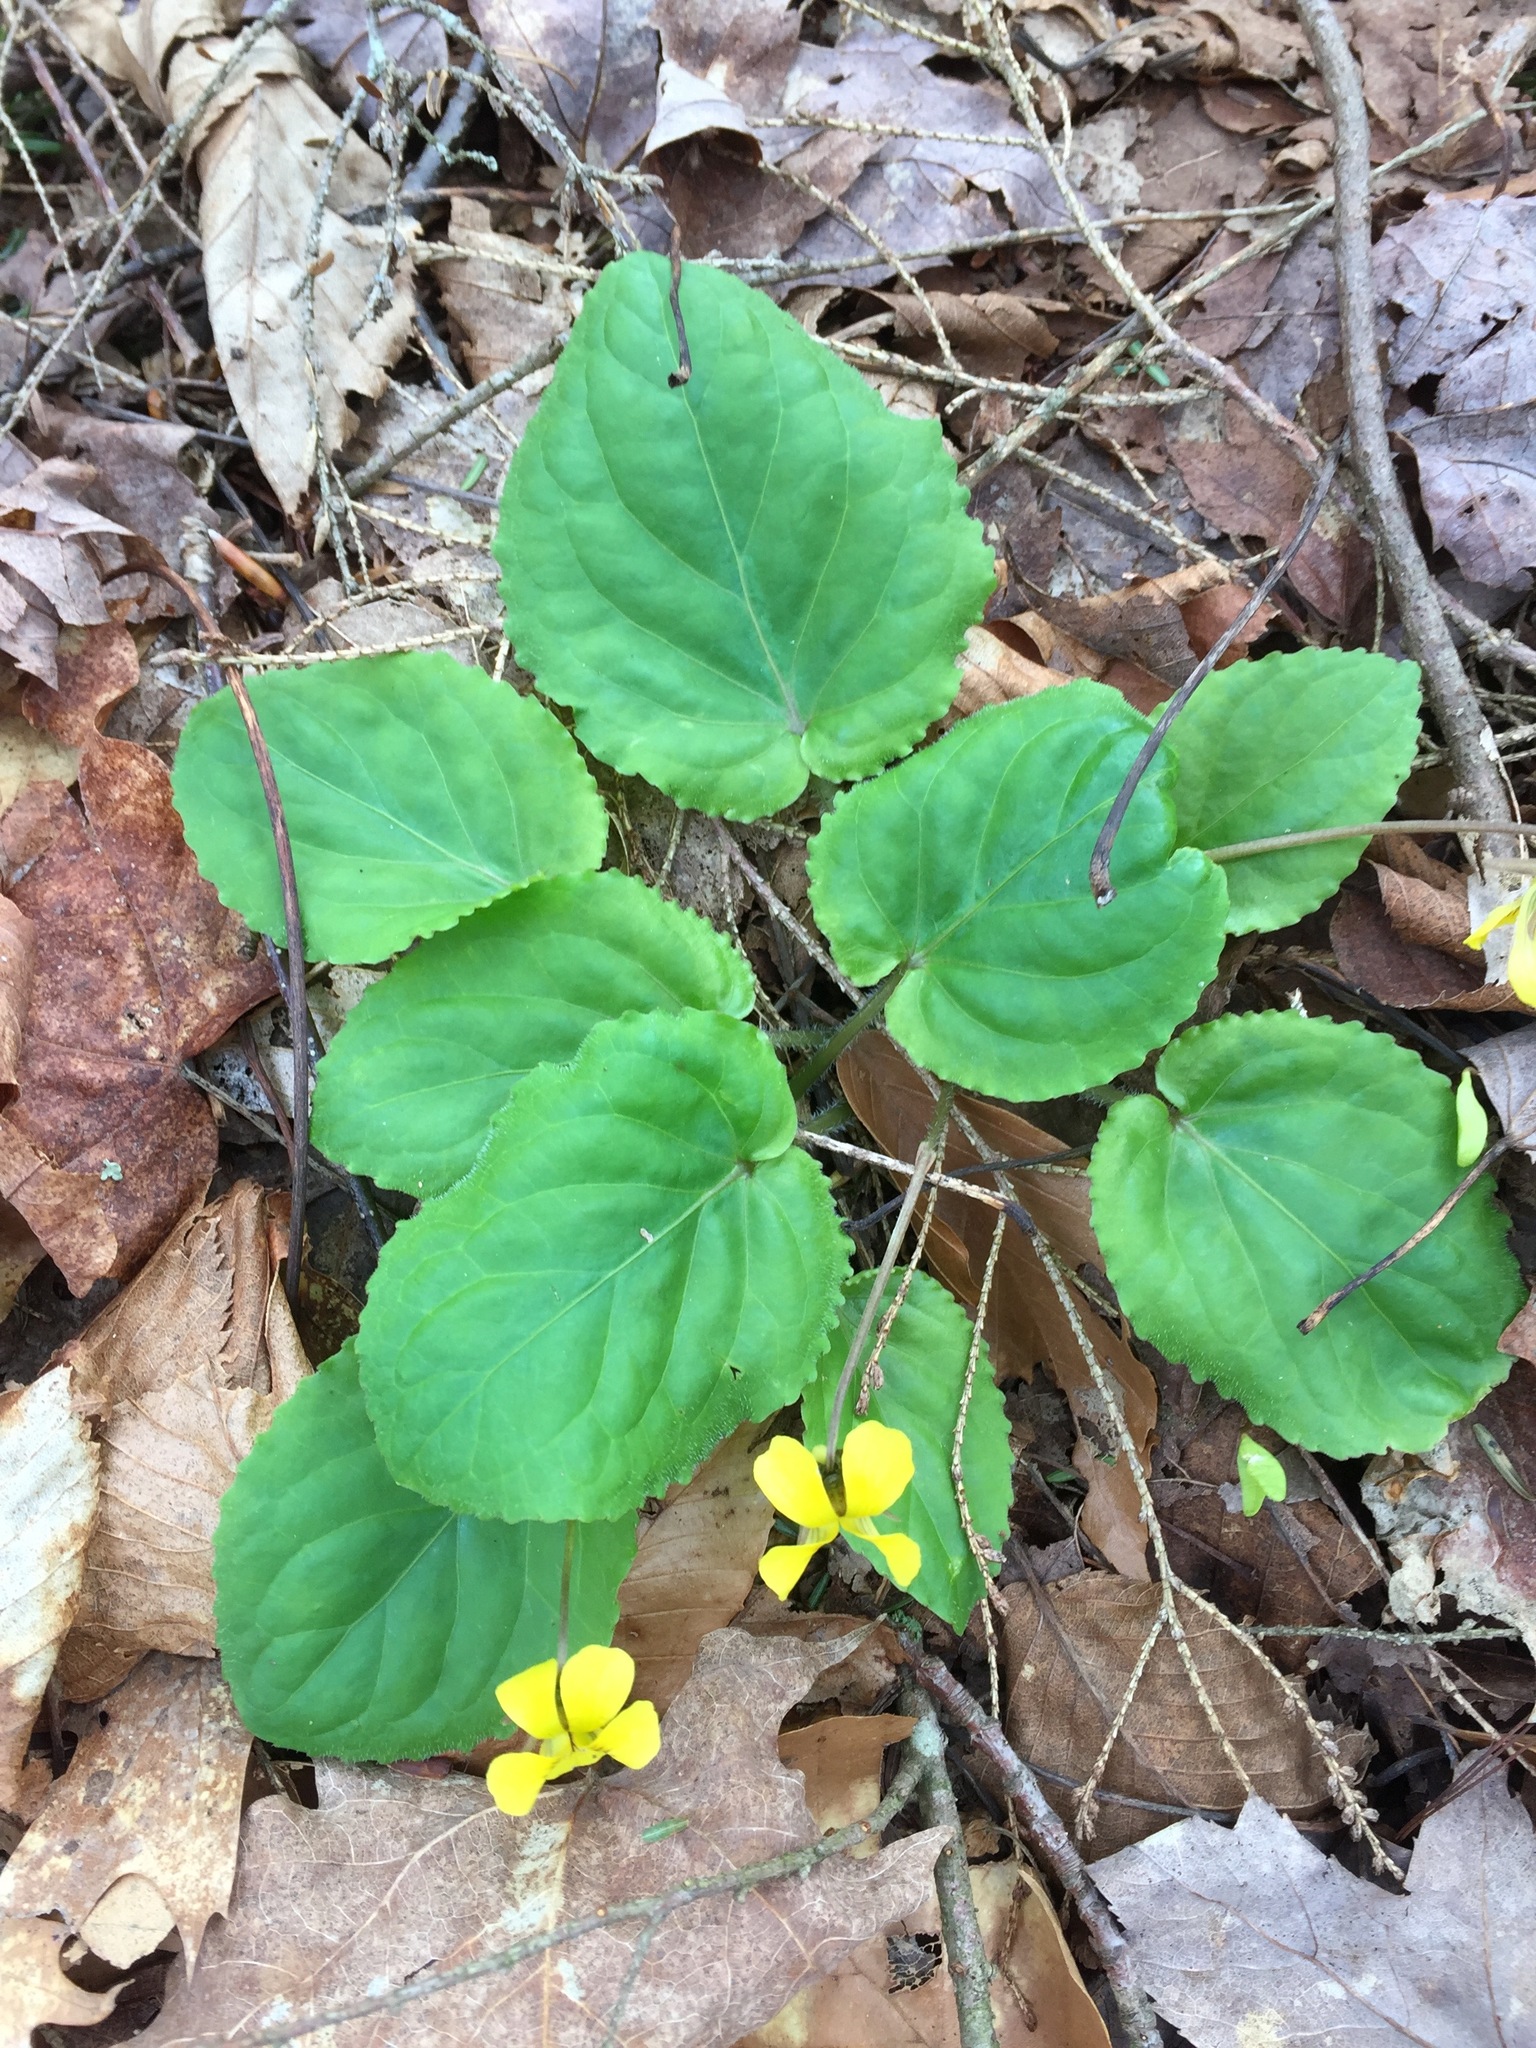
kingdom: Plantae
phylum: Tracheophyta
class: Magnoliopsida
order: Malpighiales
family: Violaceae
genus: Viola
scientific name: Viola rotundifolia
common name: Early yellow violet
